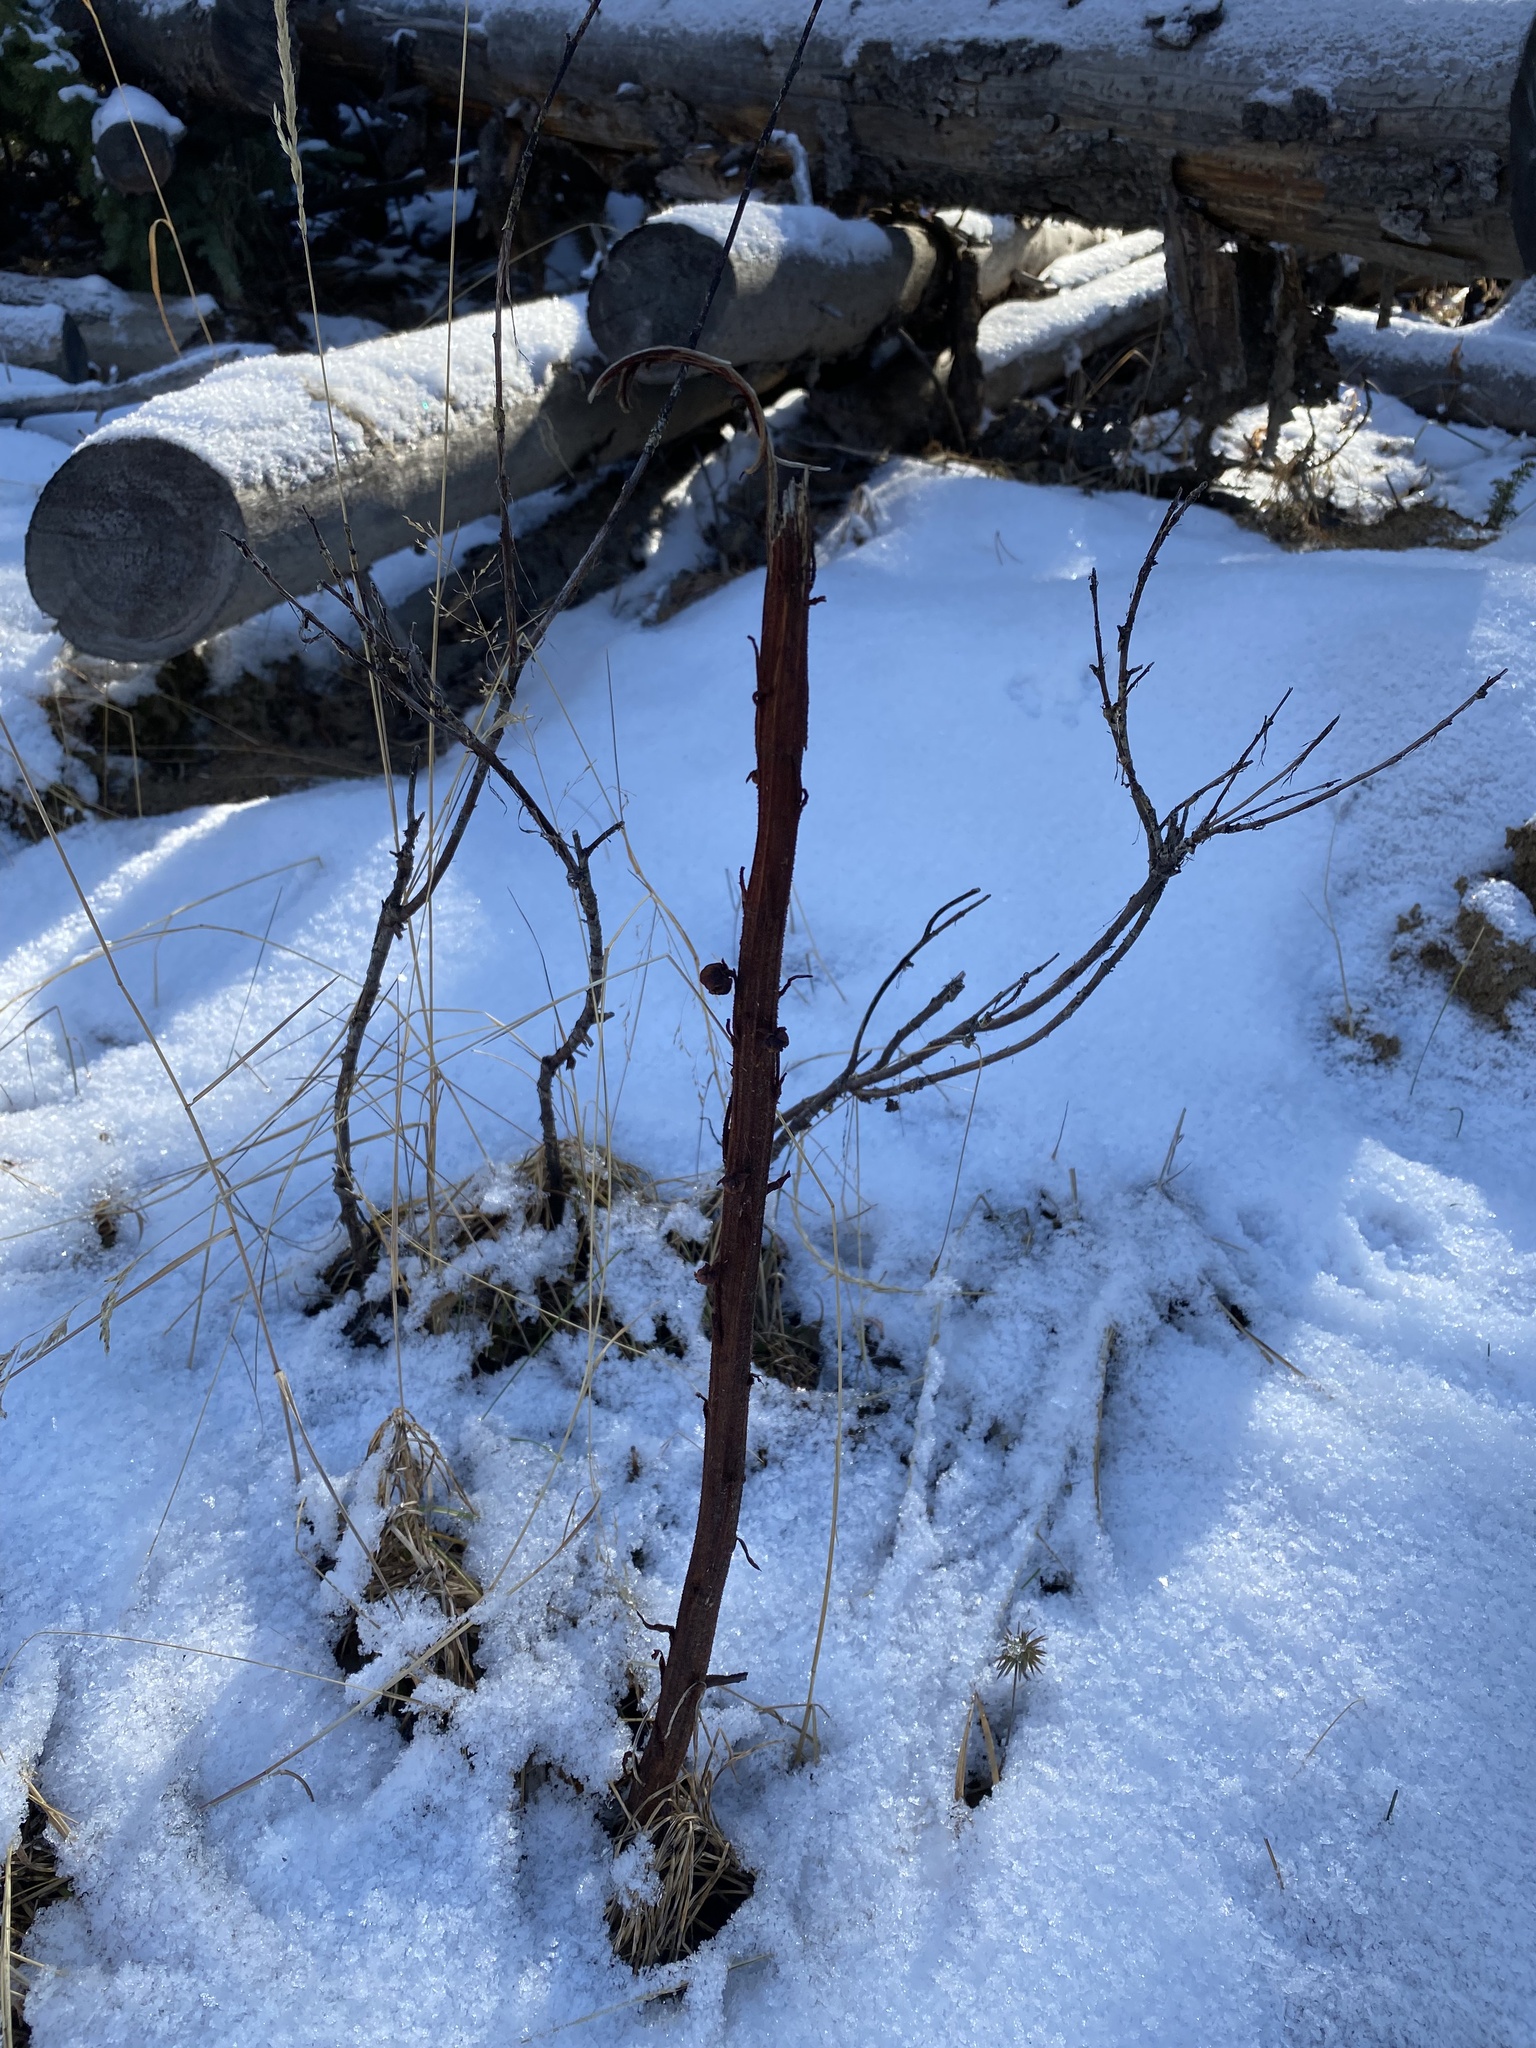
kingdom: Plantae
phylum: Tracheophyta
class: Magnoliopsida
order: Ericales
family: Ericaceae
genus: Pterospora
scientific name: Pterospora andromedea
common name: Giant bird's-nest
